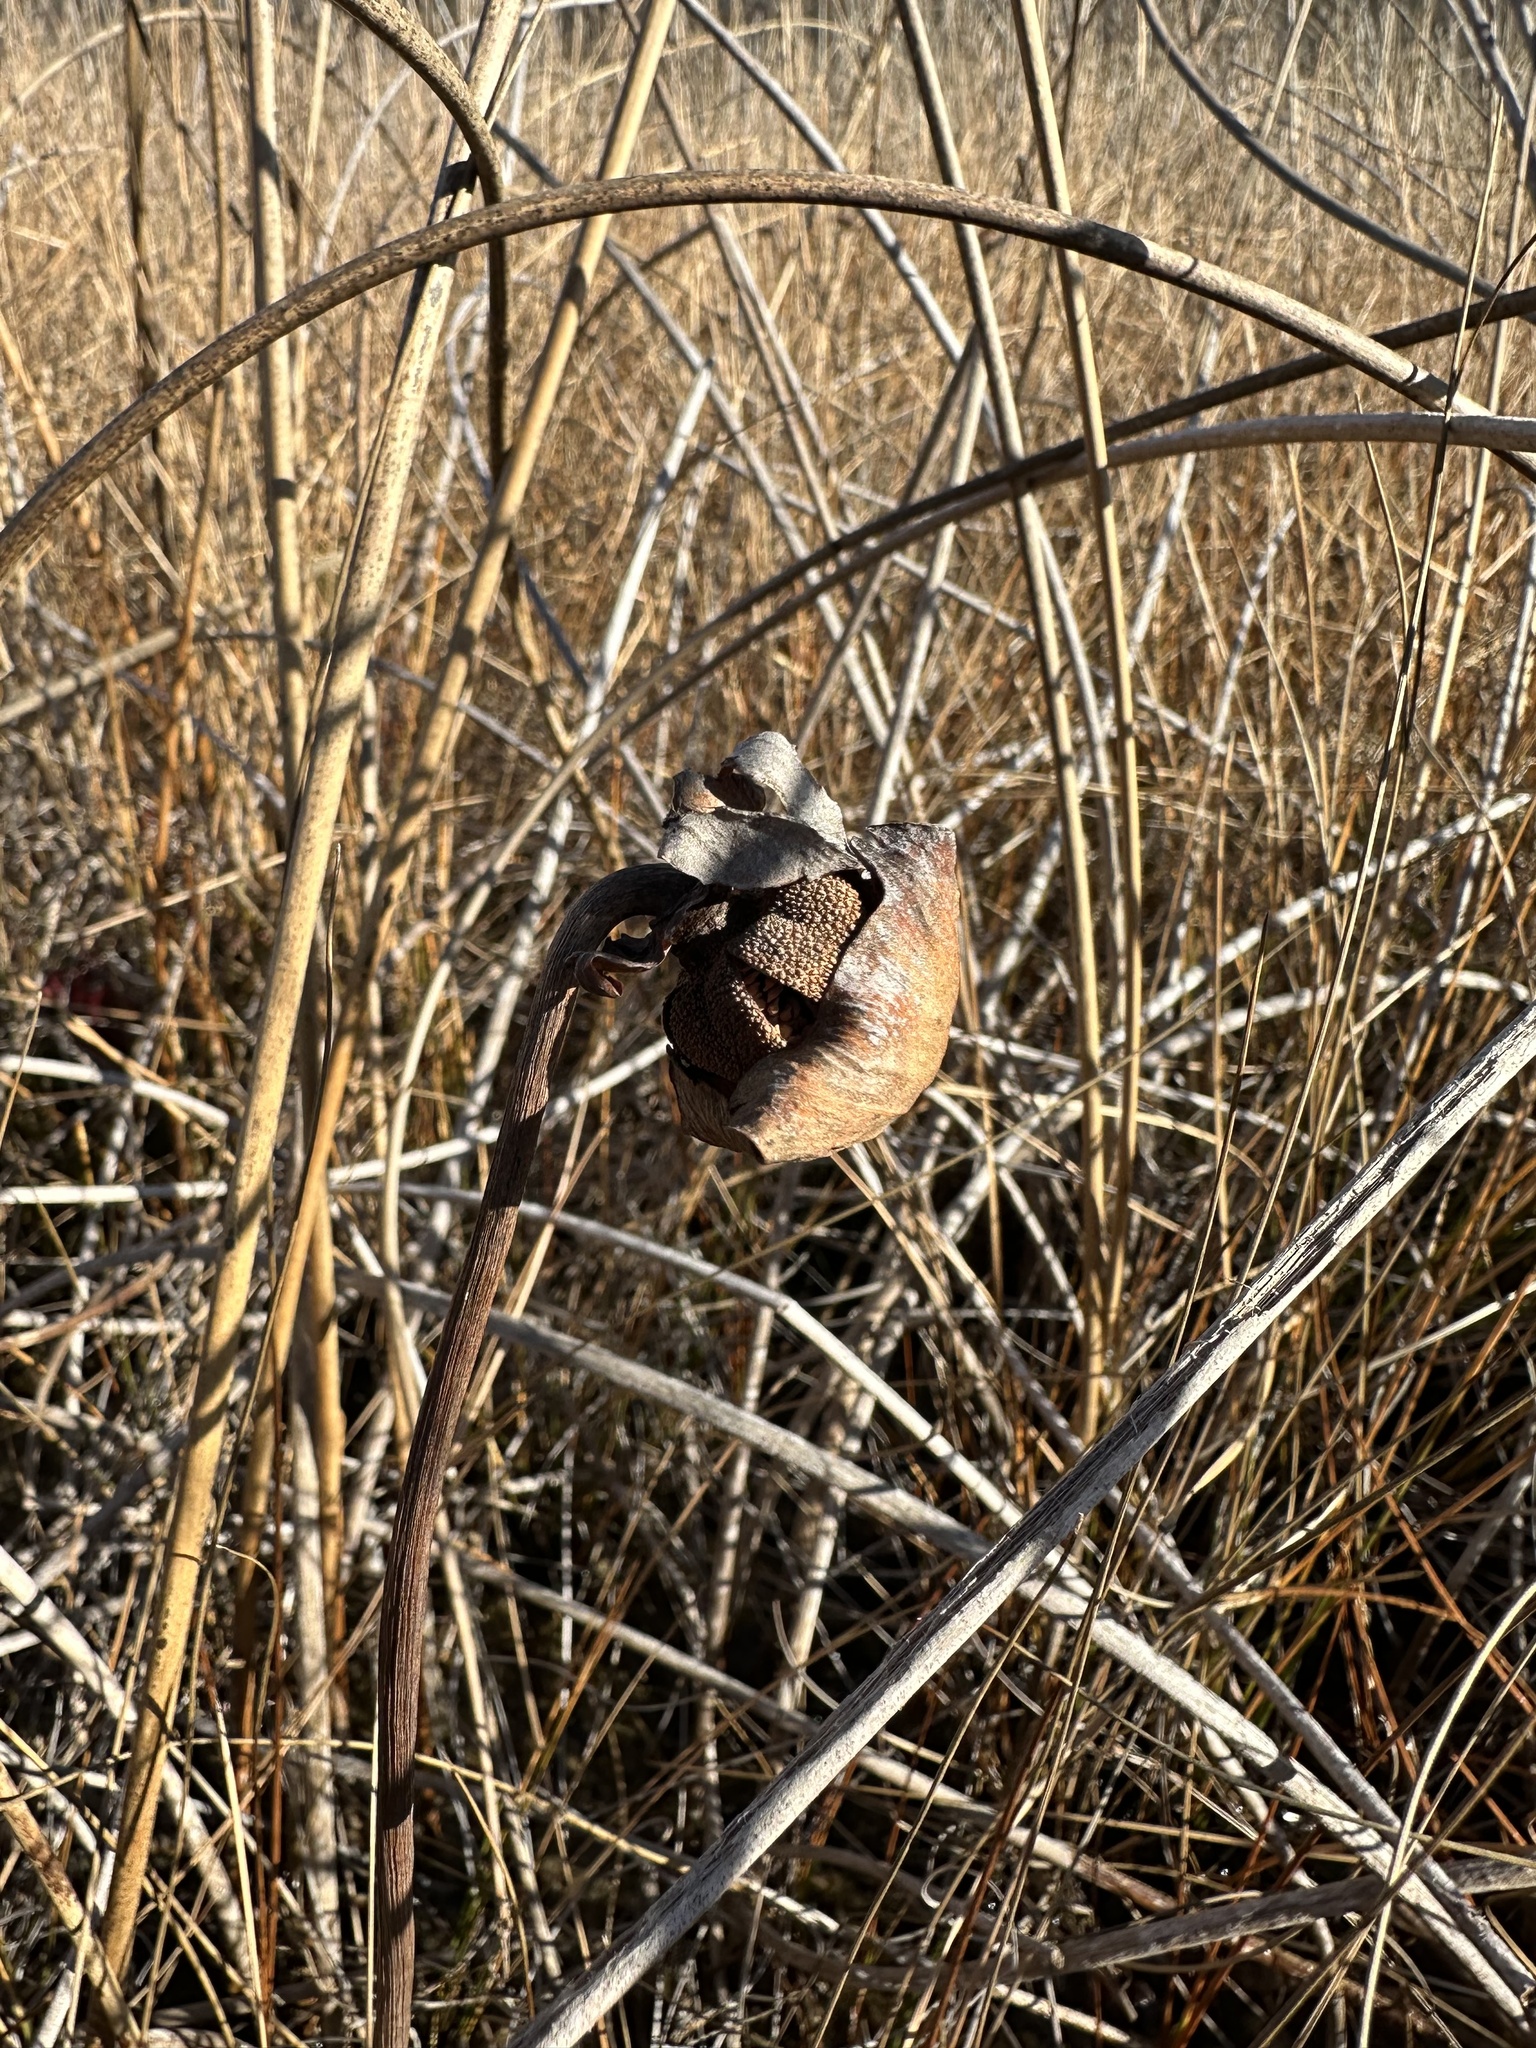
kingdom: Plantae
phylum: Tracheophyta
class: Magnoliopsida
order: Ericales
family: Sarraceniaceae
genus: Sarracenia
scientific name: Sarracenia purpurea
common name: Pitcherplant
